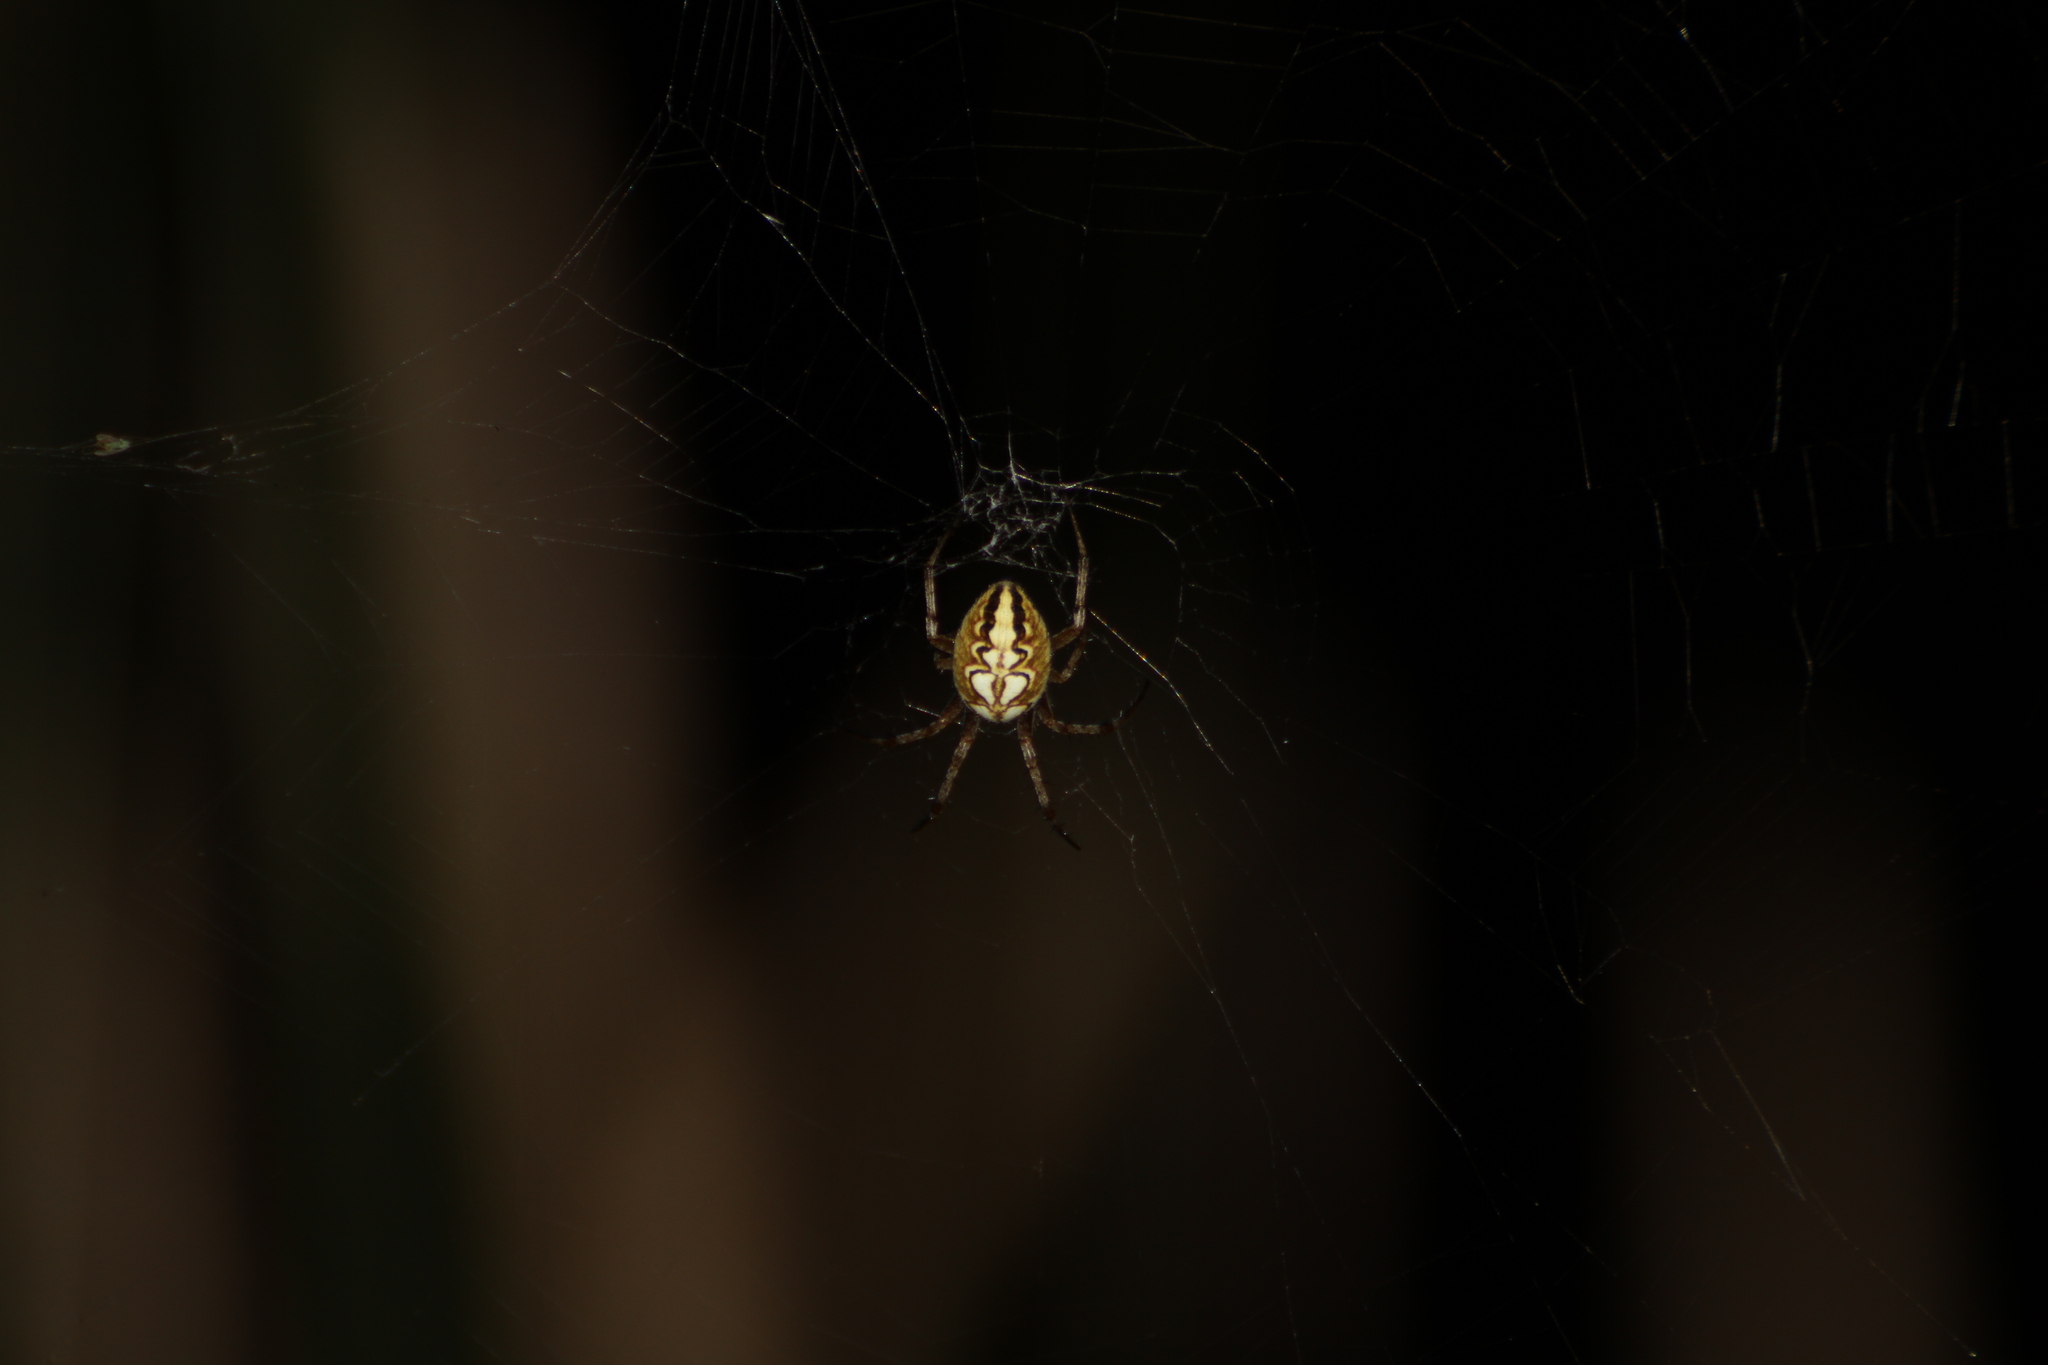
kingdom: Animalia
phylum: Arthropoda
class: Arachnida
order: Araneae
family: Araneidae
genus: Neoscona
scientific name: Neoscona adianta
